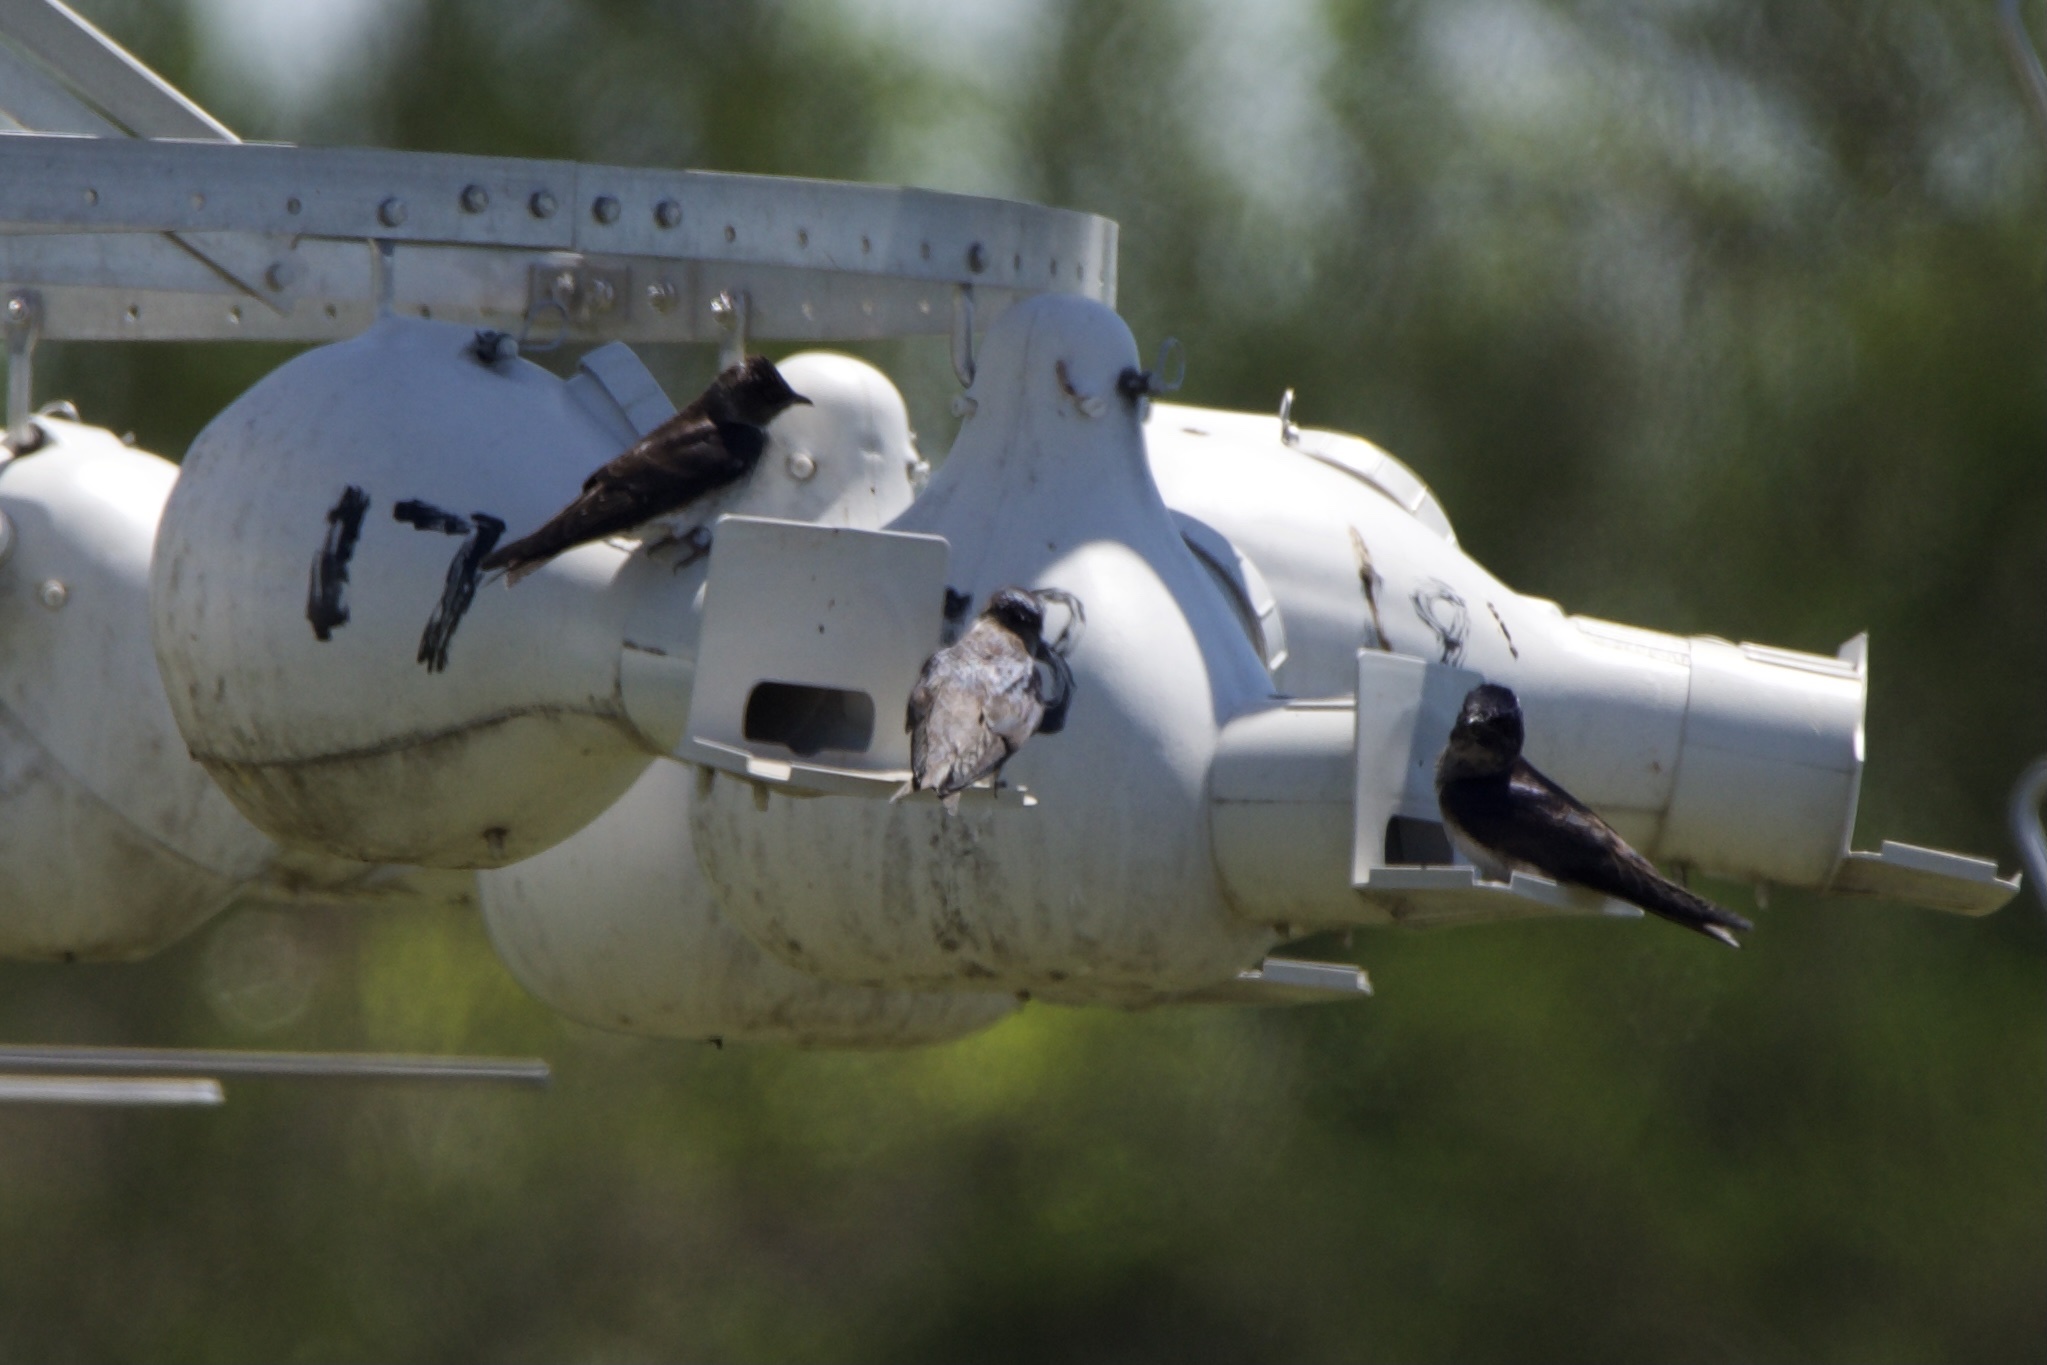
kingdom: Animalia
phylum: Chordata
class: Aves
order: Passeriformes
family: Hirundinidae
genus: Progne
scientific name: Progne subis
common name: Purple martin
